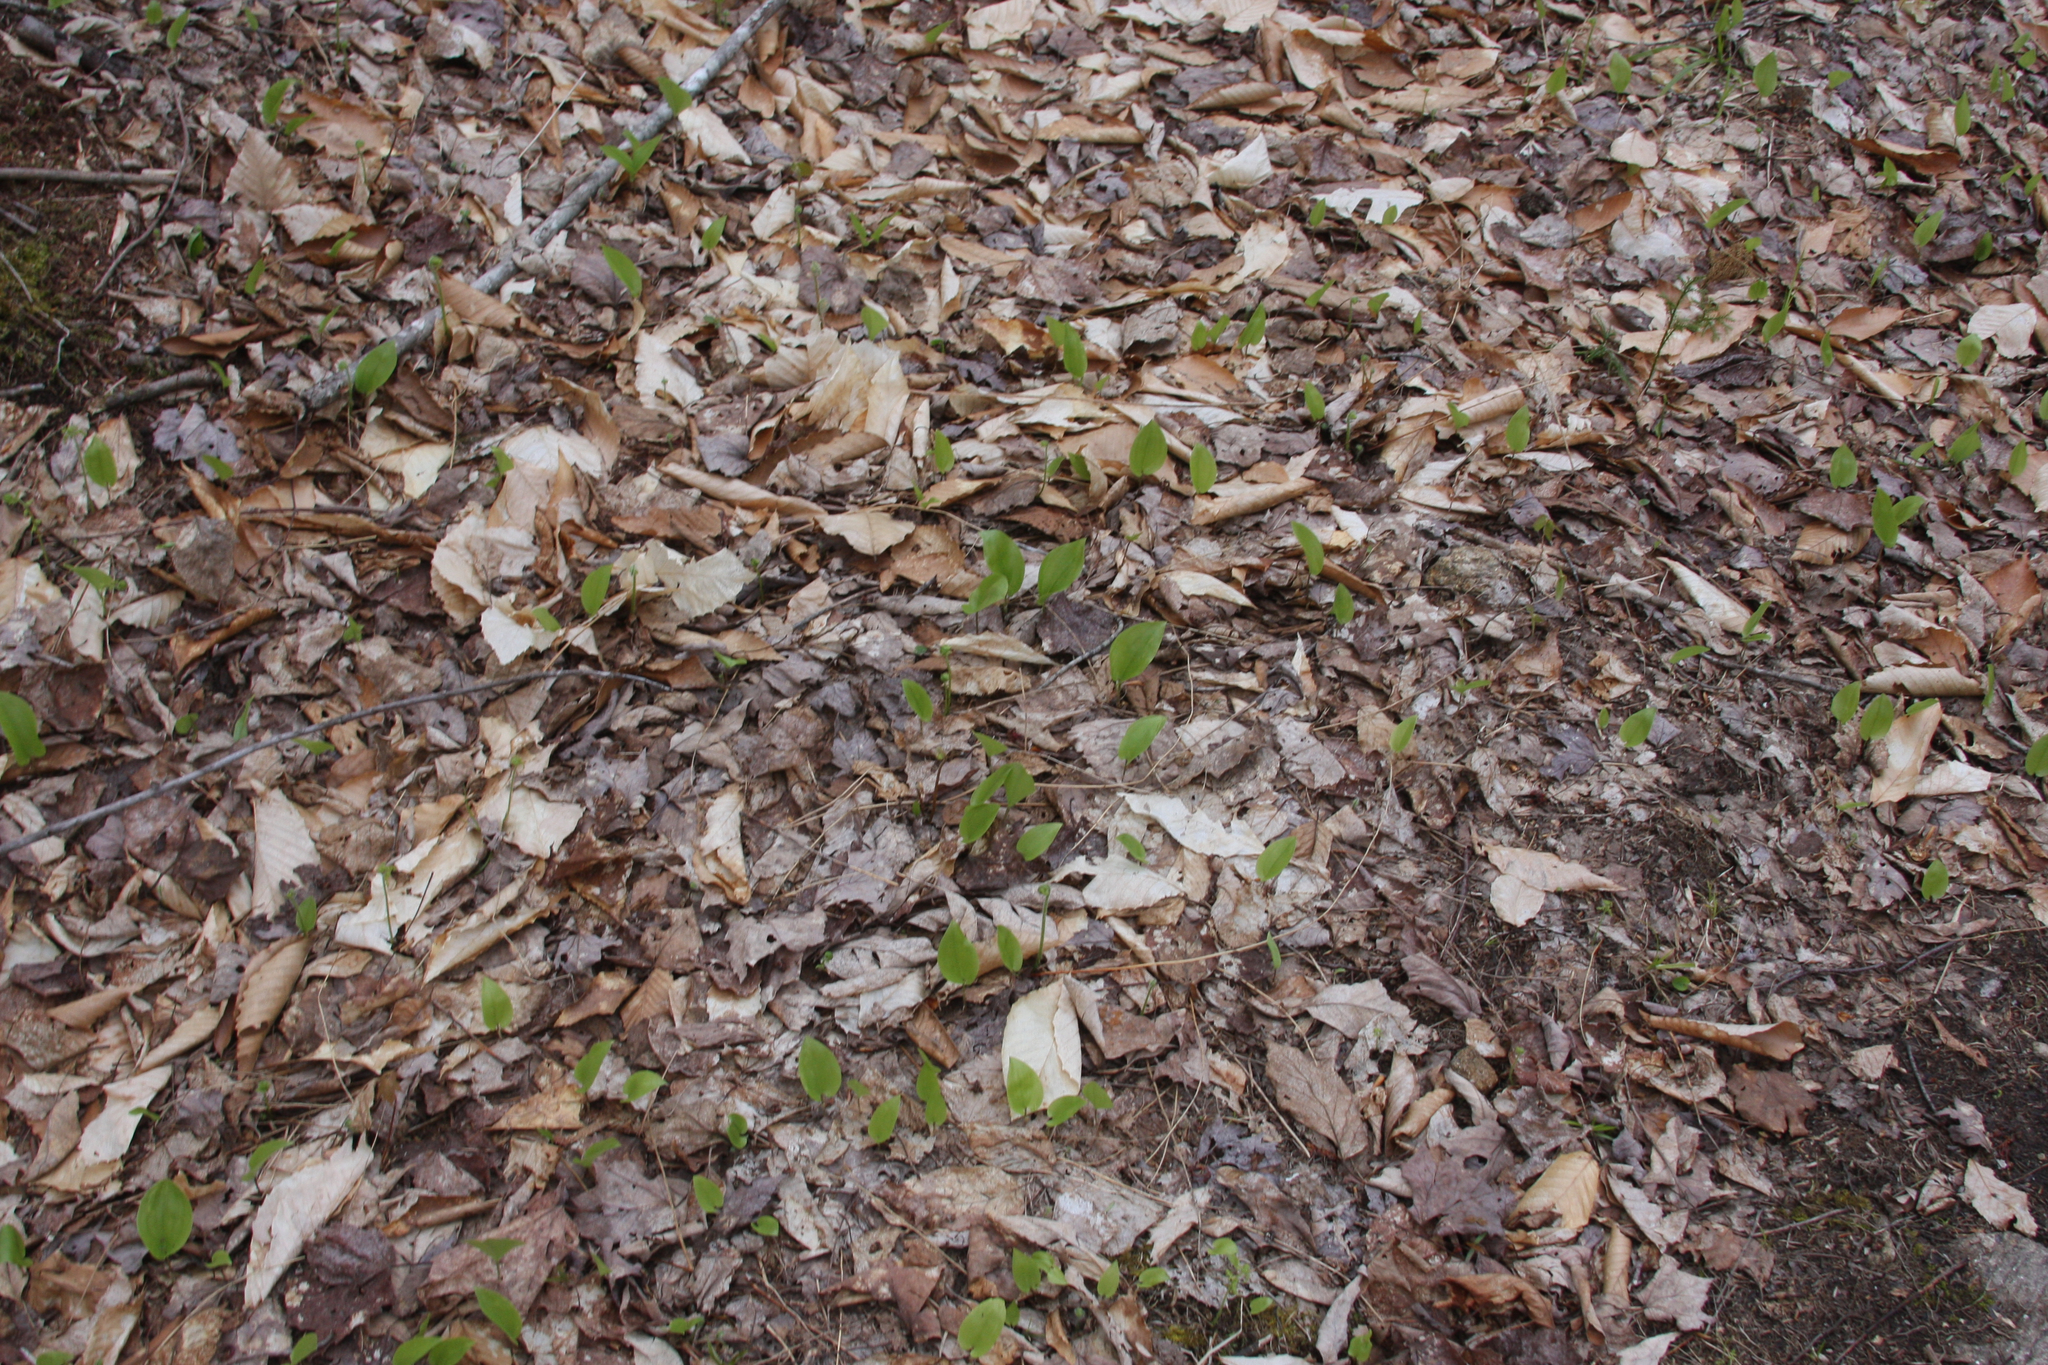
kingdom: Plantae
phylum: Tracheophyta
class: Liliopsida
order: Asparagales
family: Asparagaceae
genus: Maianthemum
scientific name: Maianthemum canadense
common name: False lily-of-the-valley
